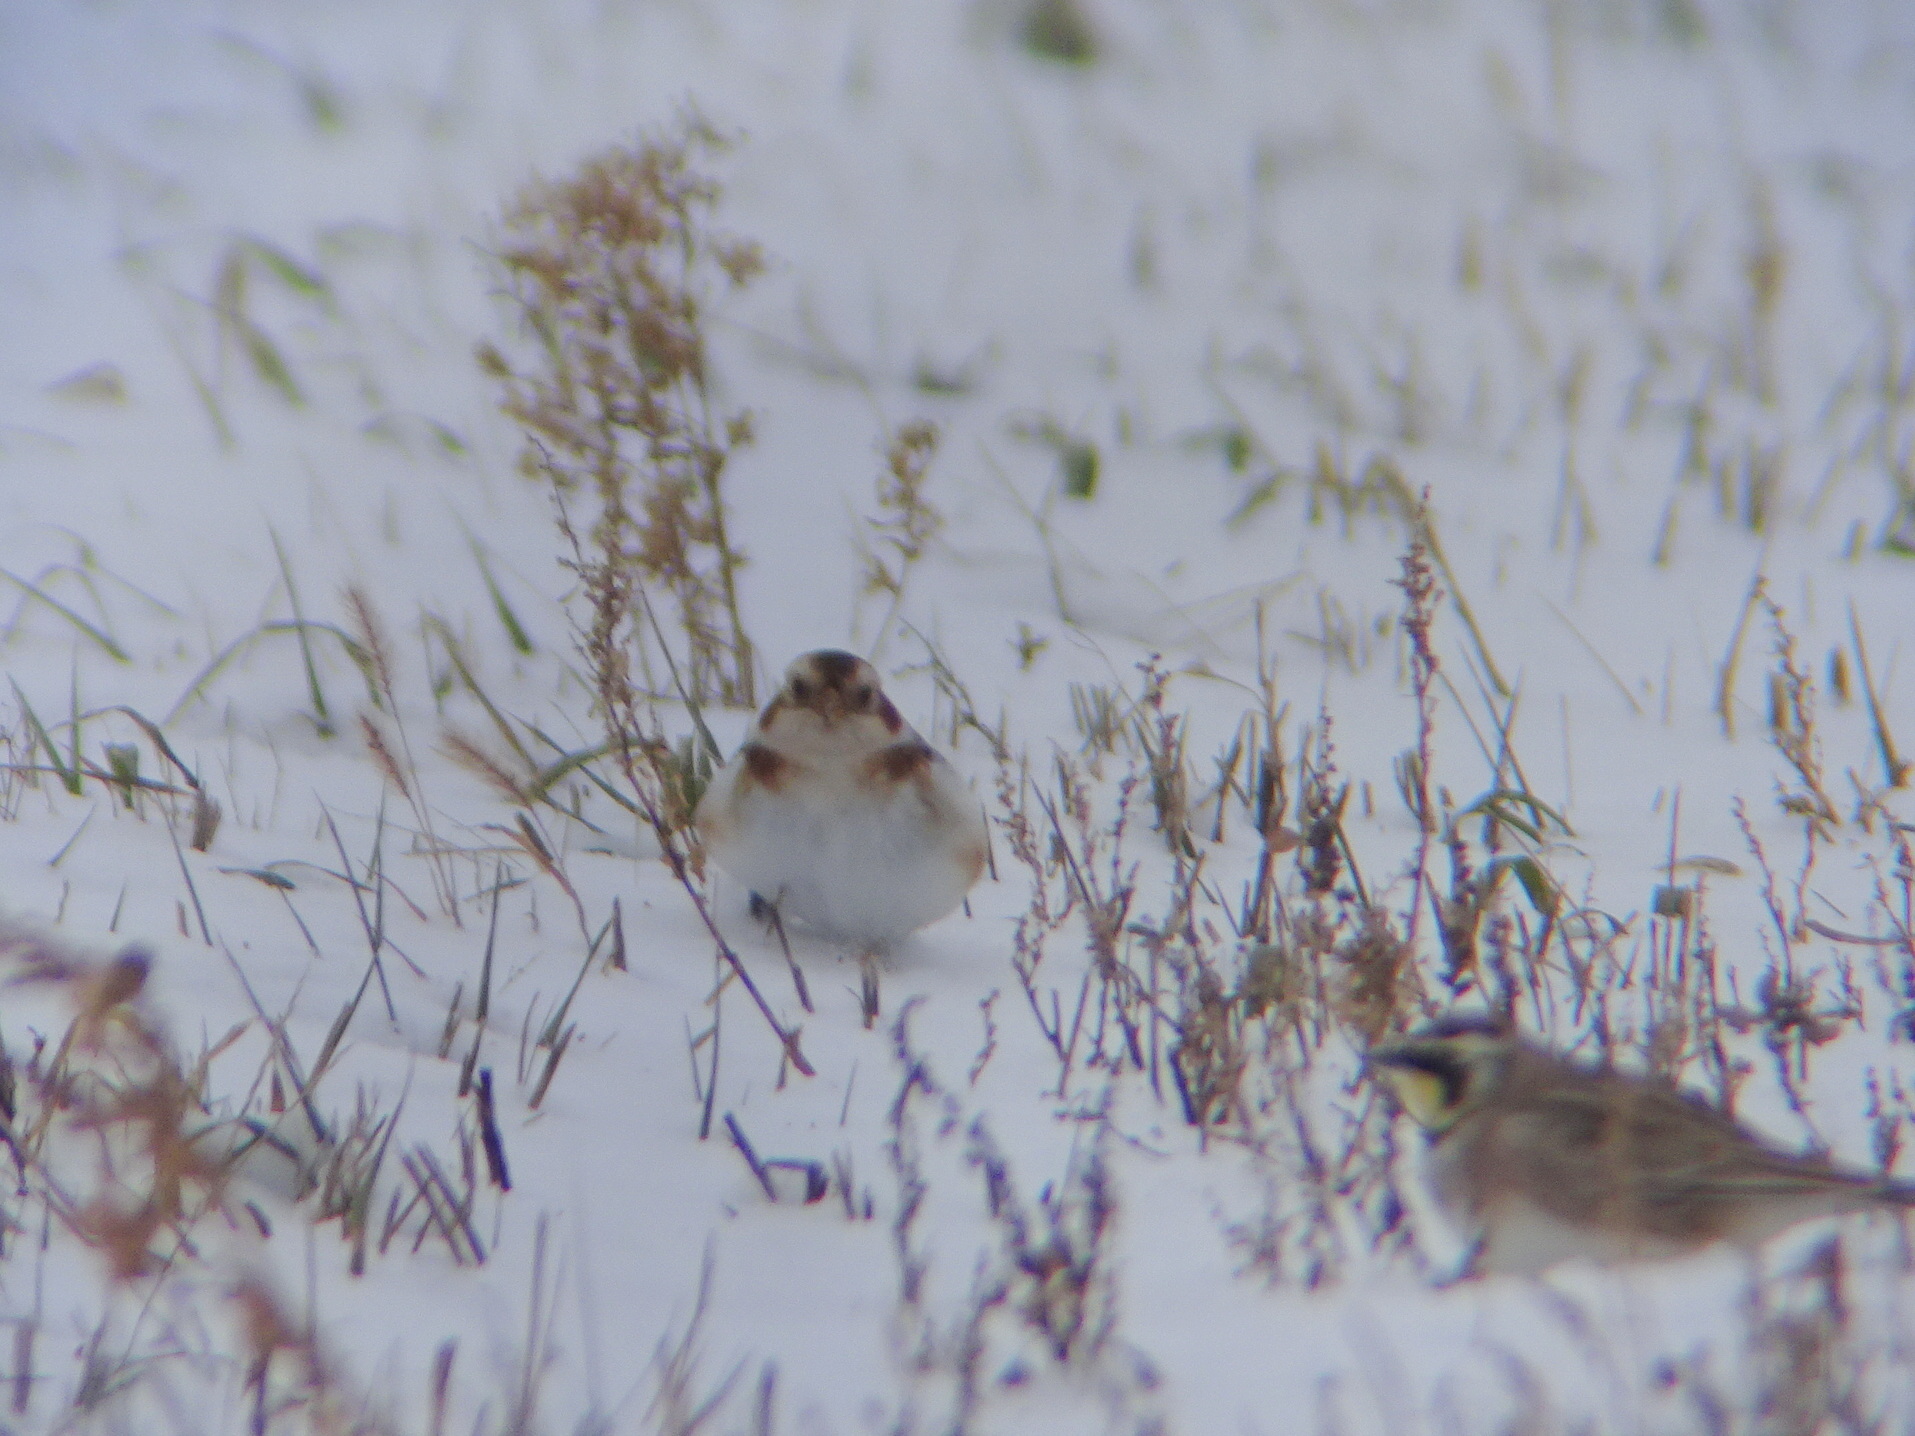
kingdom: Animalia
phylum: Chordata
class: Aves
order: Passeriformes
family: Calcariidae
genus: Plectrophenax
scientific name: Plectrophenax nivalis
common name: Snow bunting
